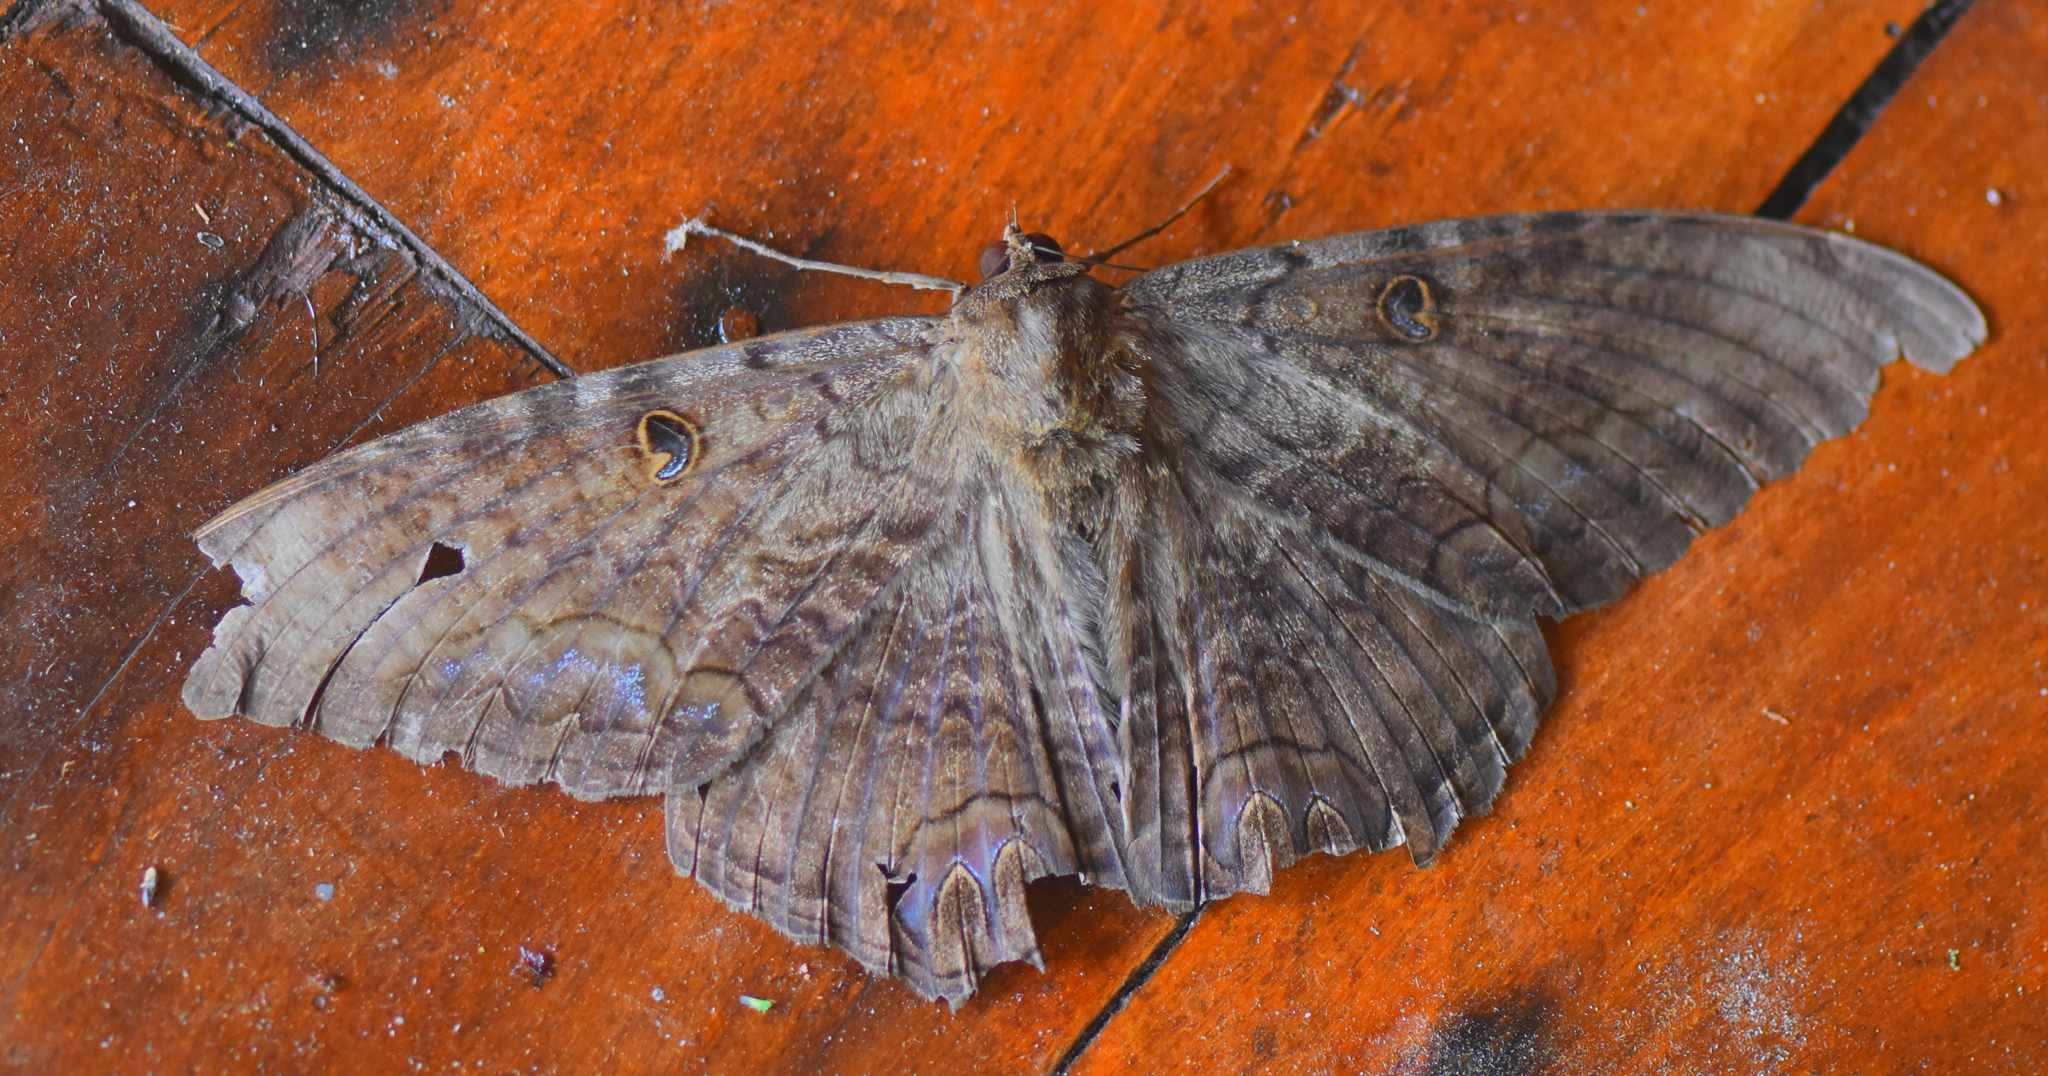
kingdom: Animalia
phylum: Arthropoda
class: Insecta
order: Lepidoptera
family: Erebidae
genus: Ascalapha
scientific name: Ascalapha odorata
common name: Black witch
